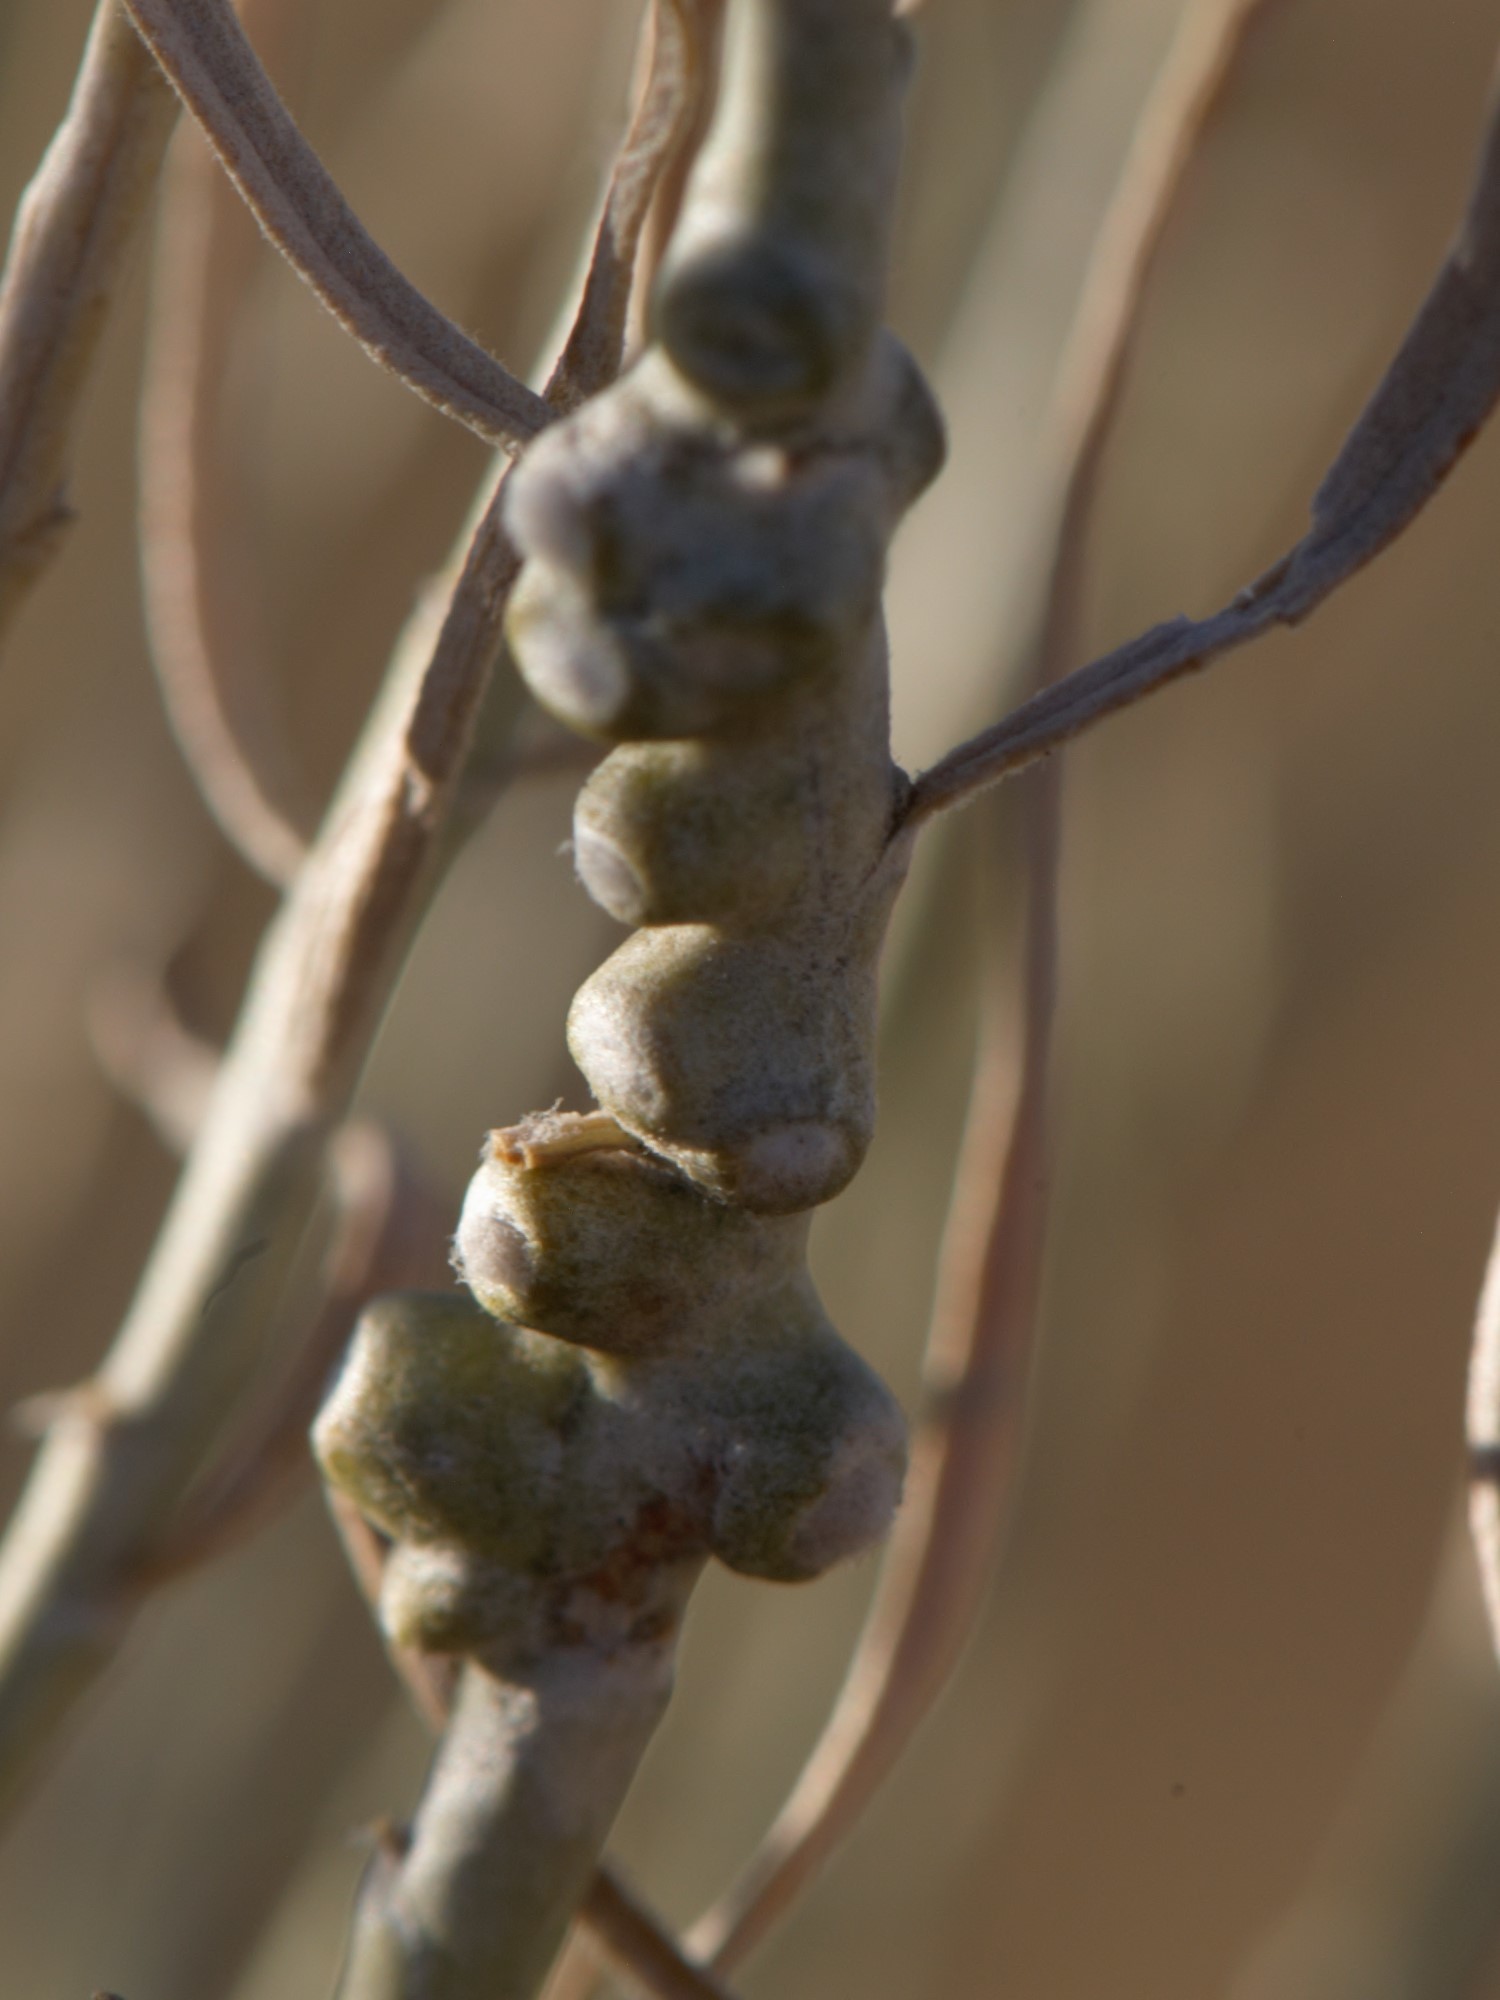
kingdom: Animalia
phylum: Arthropoda
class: Insecta
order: Diptera
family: Cecidomyiidae
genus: Rhopalomyia
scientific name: Rhopalomyia chrysothamni
